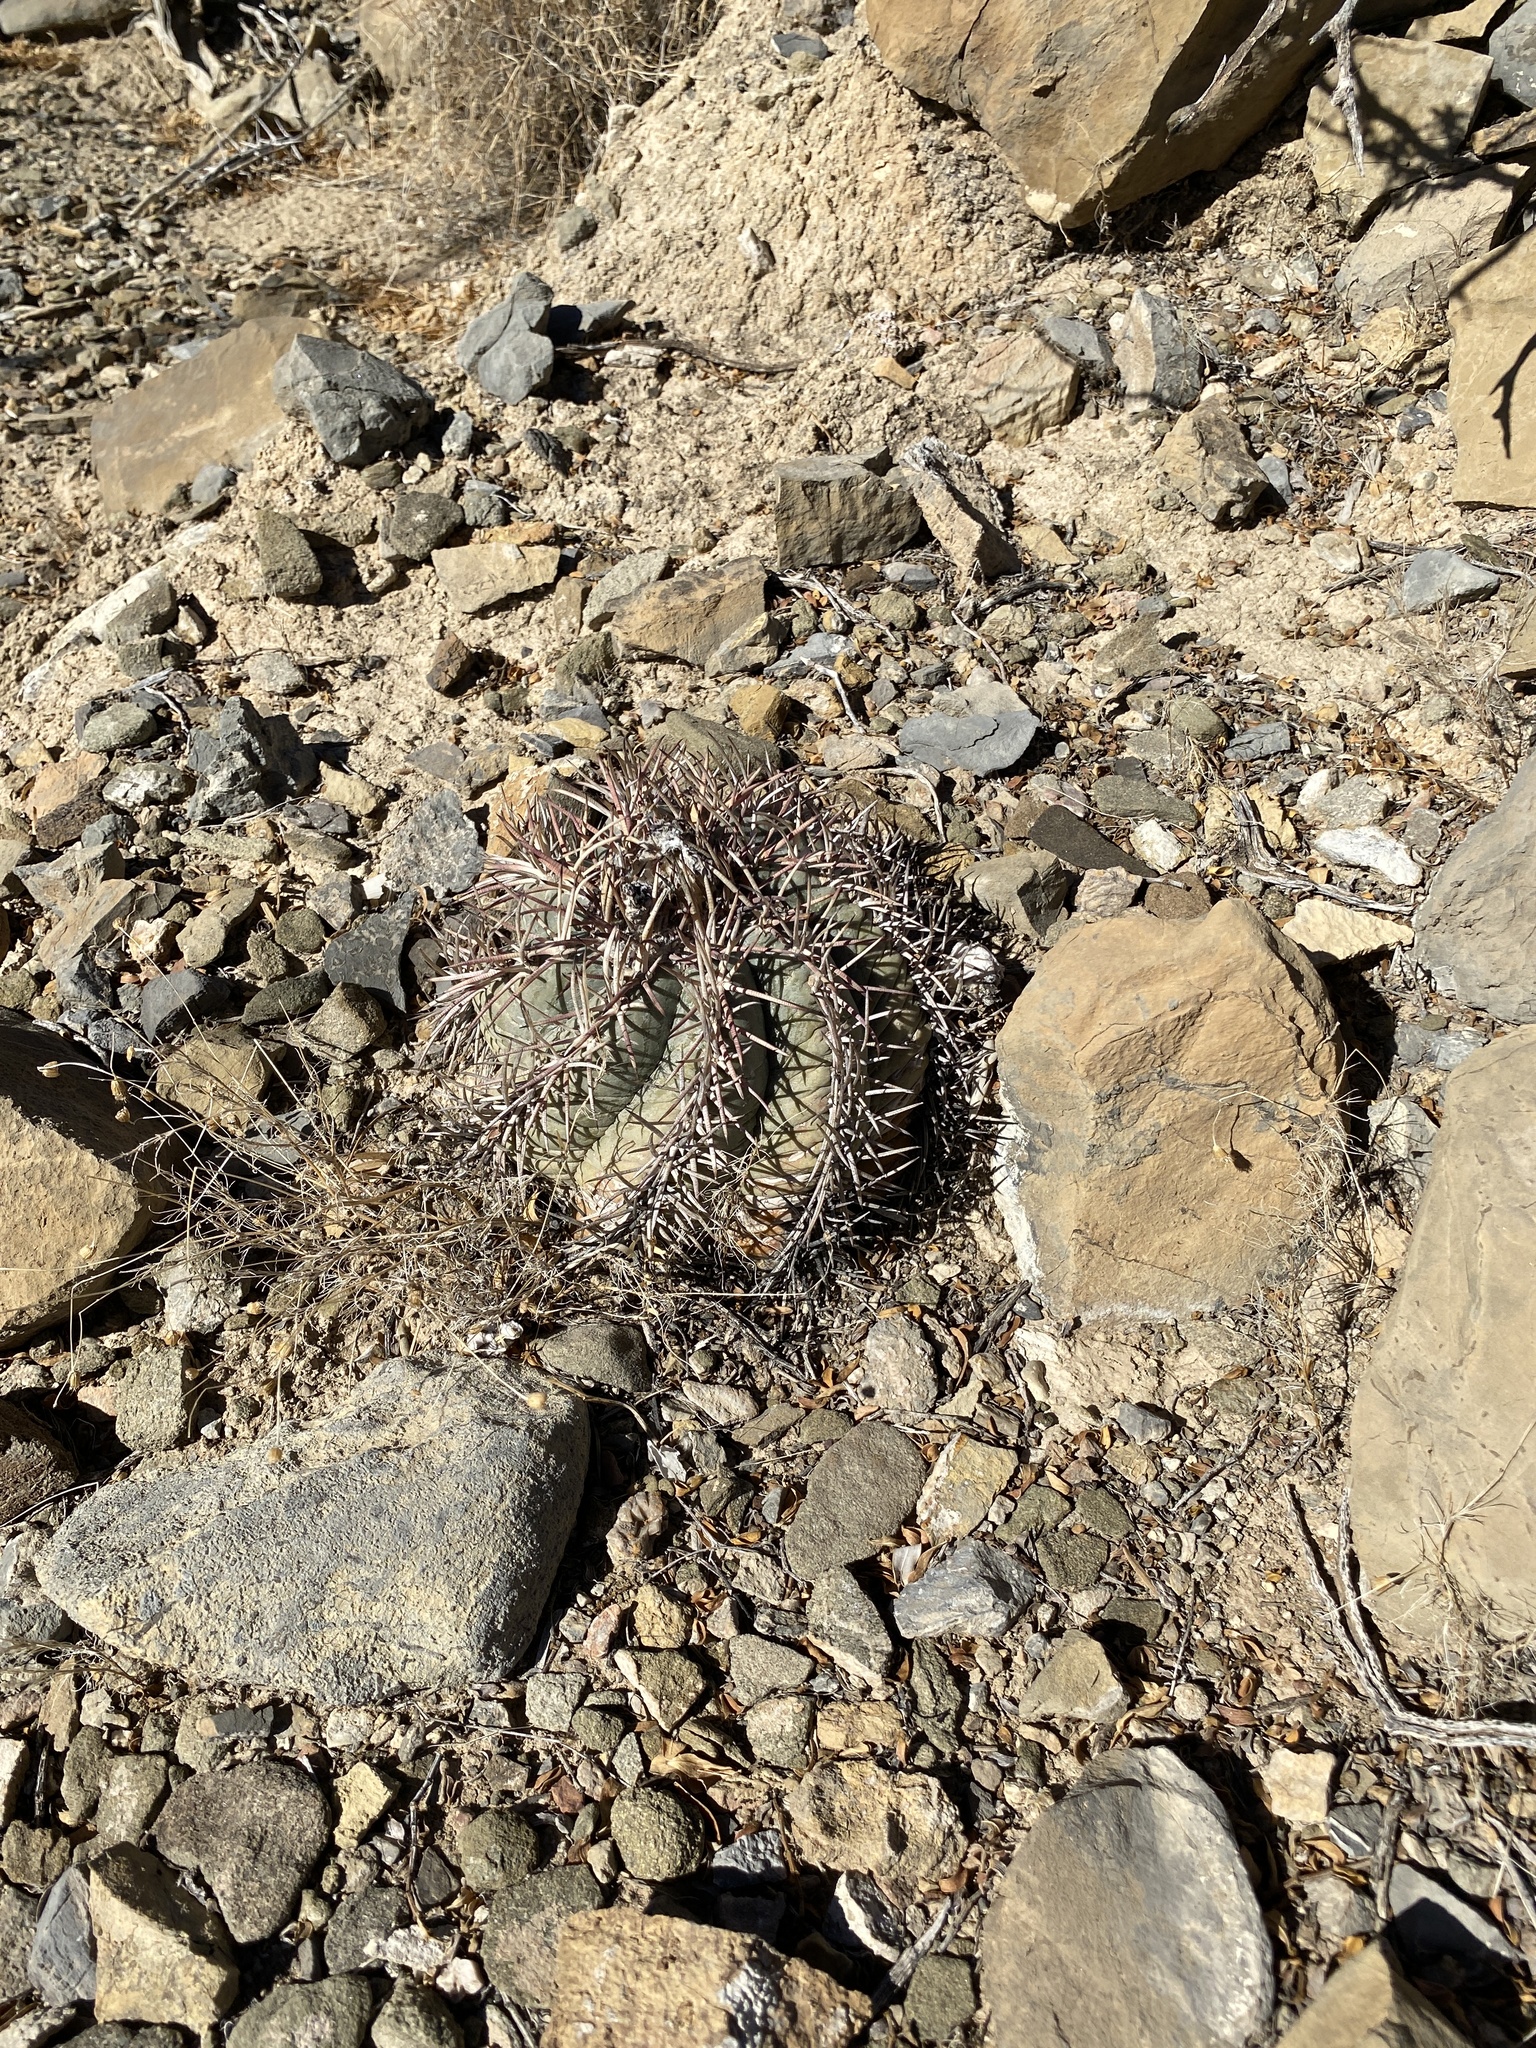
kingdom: Plantae
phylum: Tracheophyta
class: Magnoliopsida
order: Caryophyllales
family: Cactaceae
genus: Echinocactus
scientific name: Echinocactus horizonthalonius
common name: Devilshead
